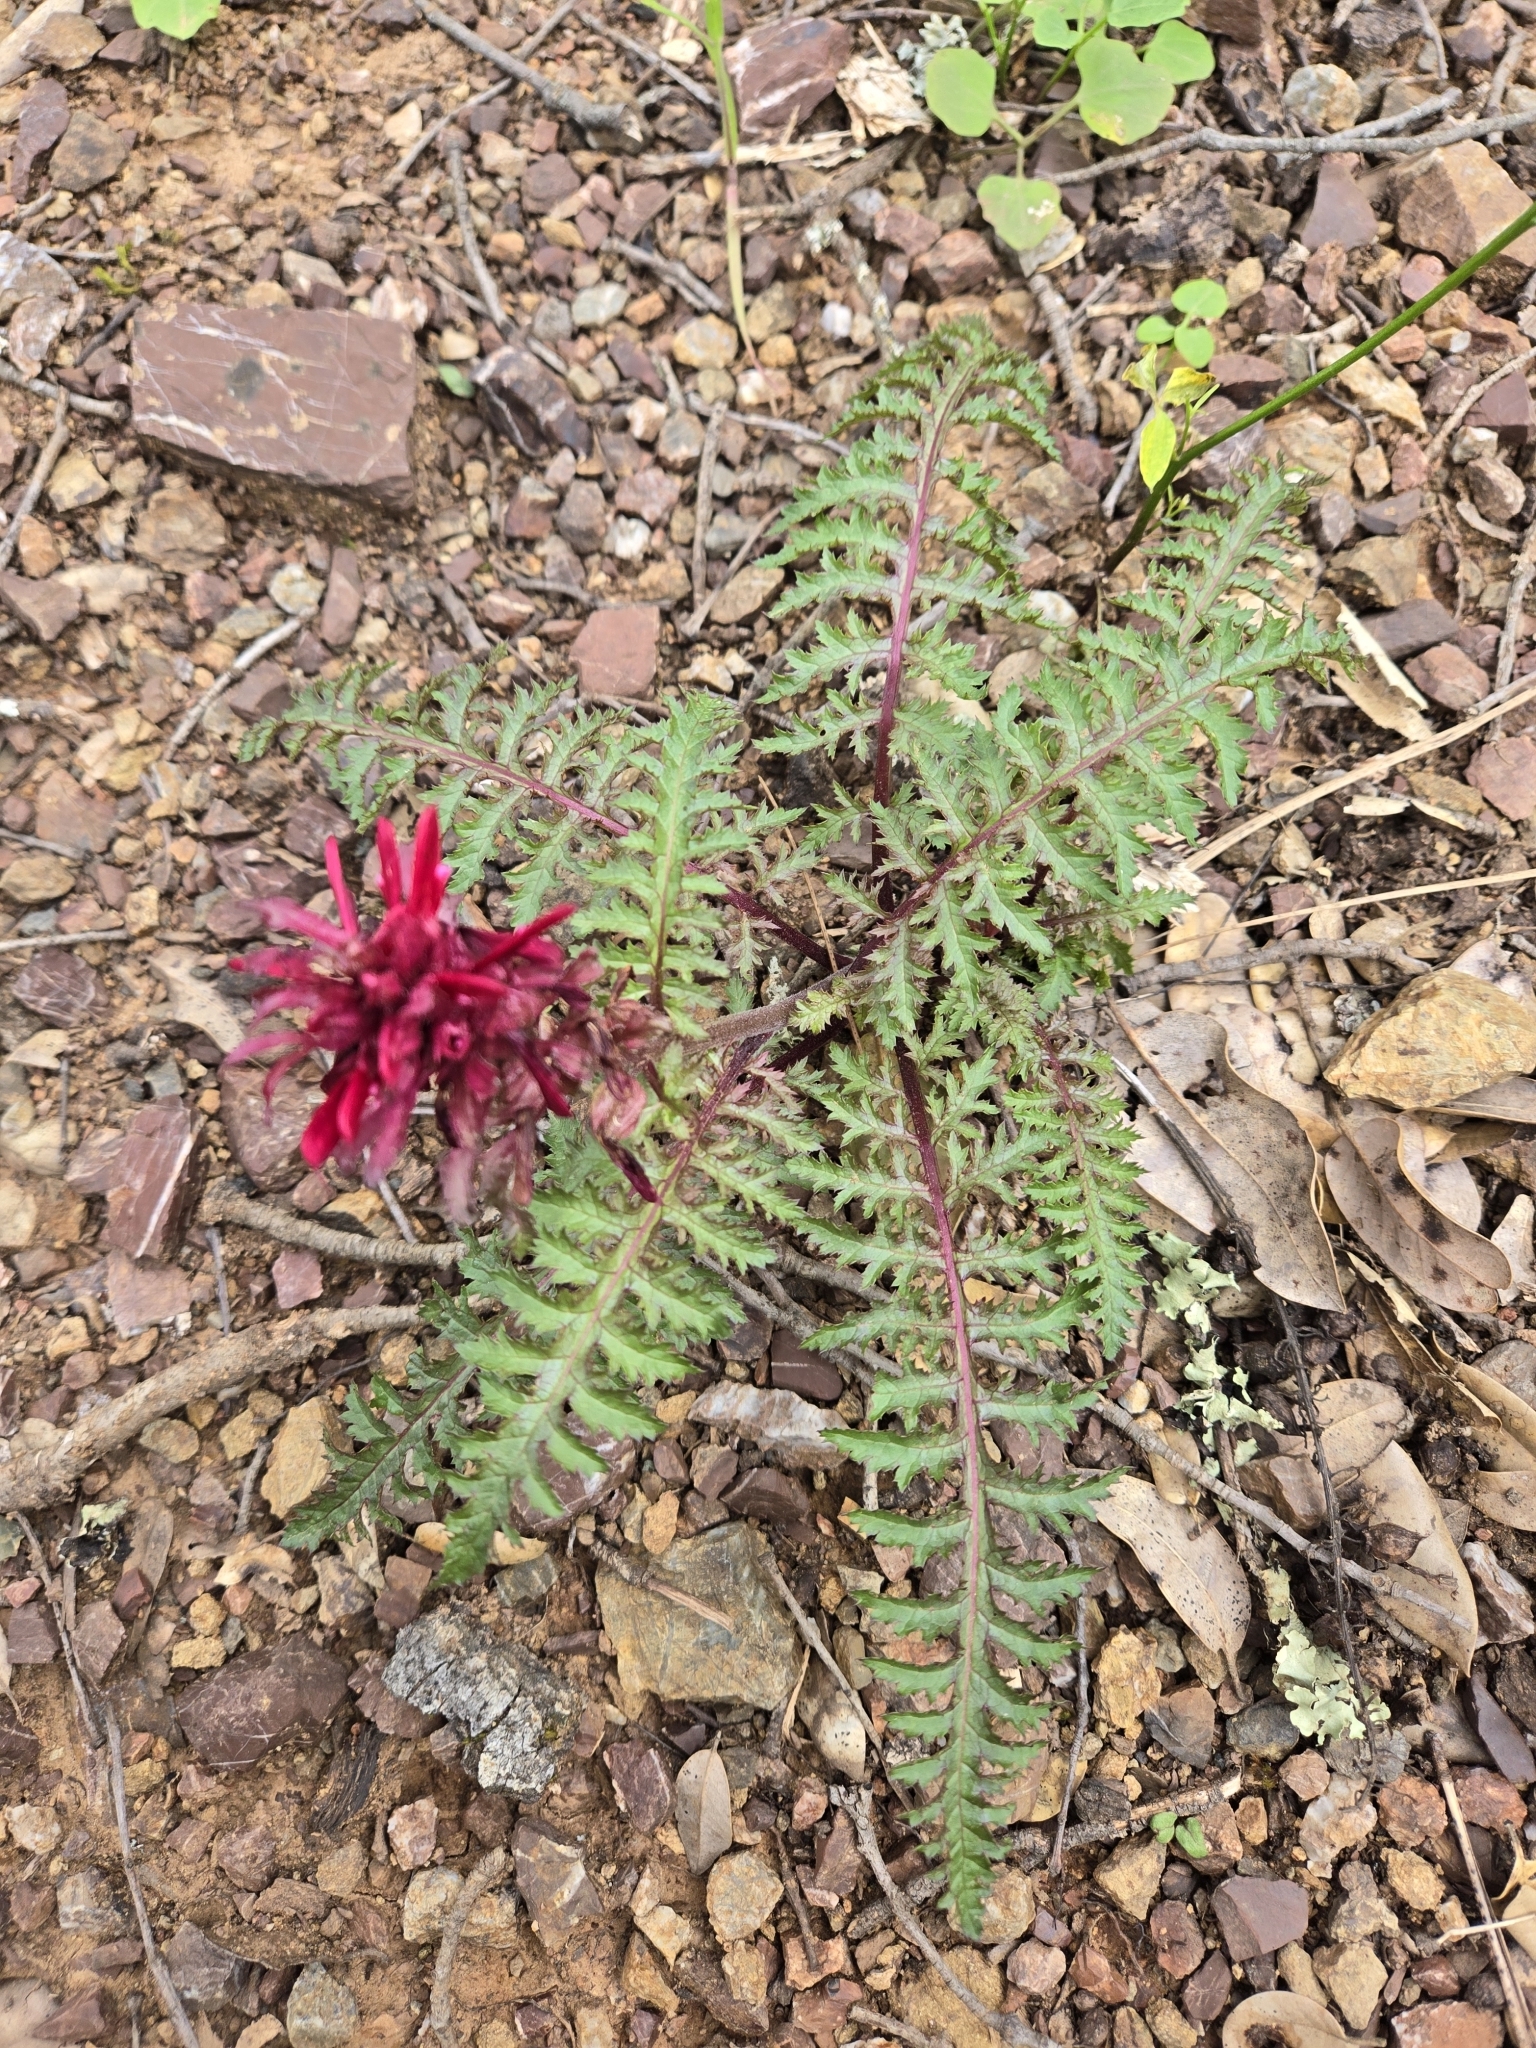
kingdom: Plantae
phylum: Tracheophyta
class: Magnoliopsida
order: Lamiales
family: Orobanchaceae
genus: Pedicularis
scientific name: Pedicularis densiflora
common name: Indian warrior
